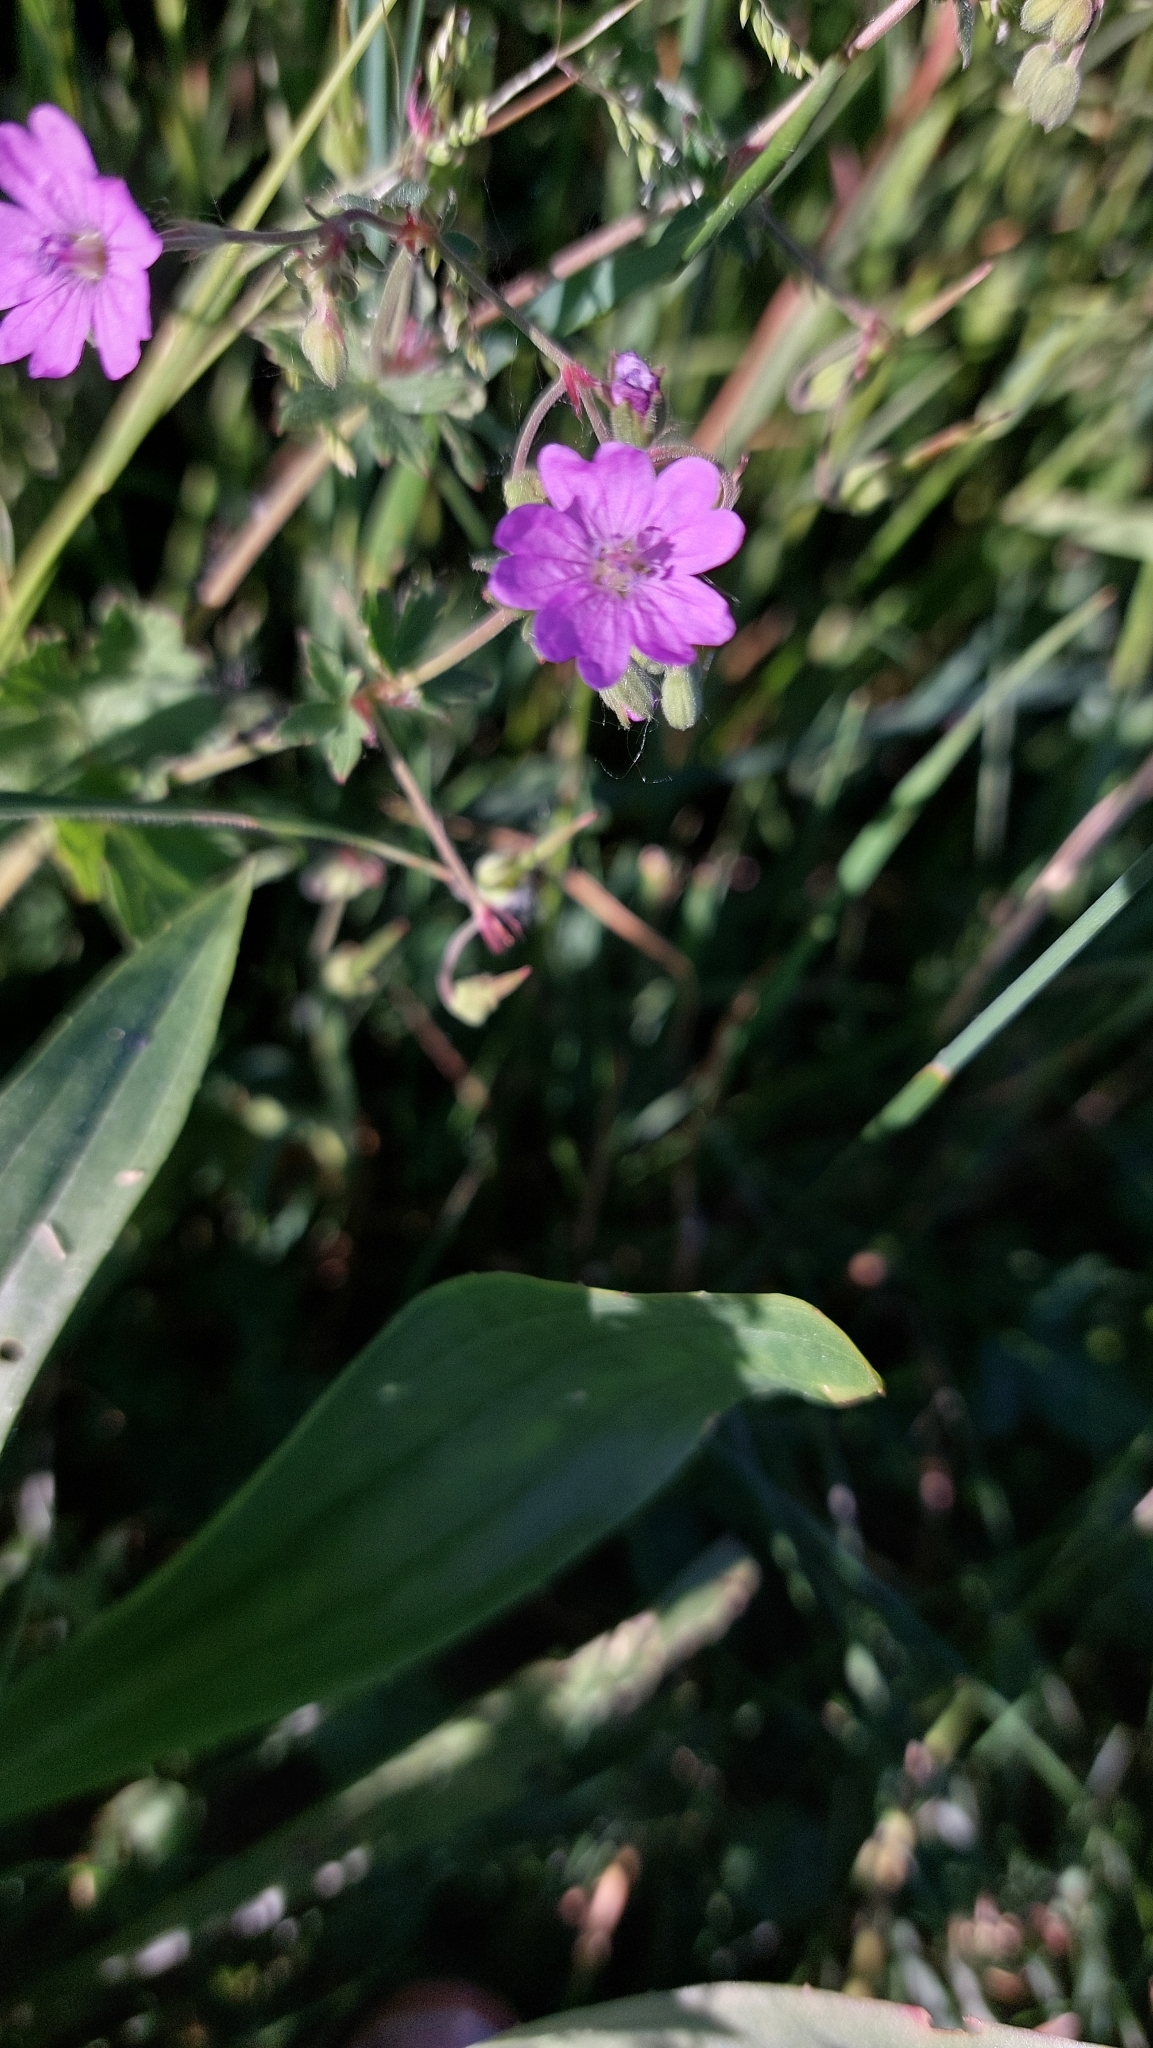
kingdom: Plantae
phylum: Tracheophyta
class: Magnoliopsida
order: Geraniales
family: Geraniaceae
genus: Geranium
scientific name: Geranium pyrenaicum
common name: Hedgerow crane's-bill
